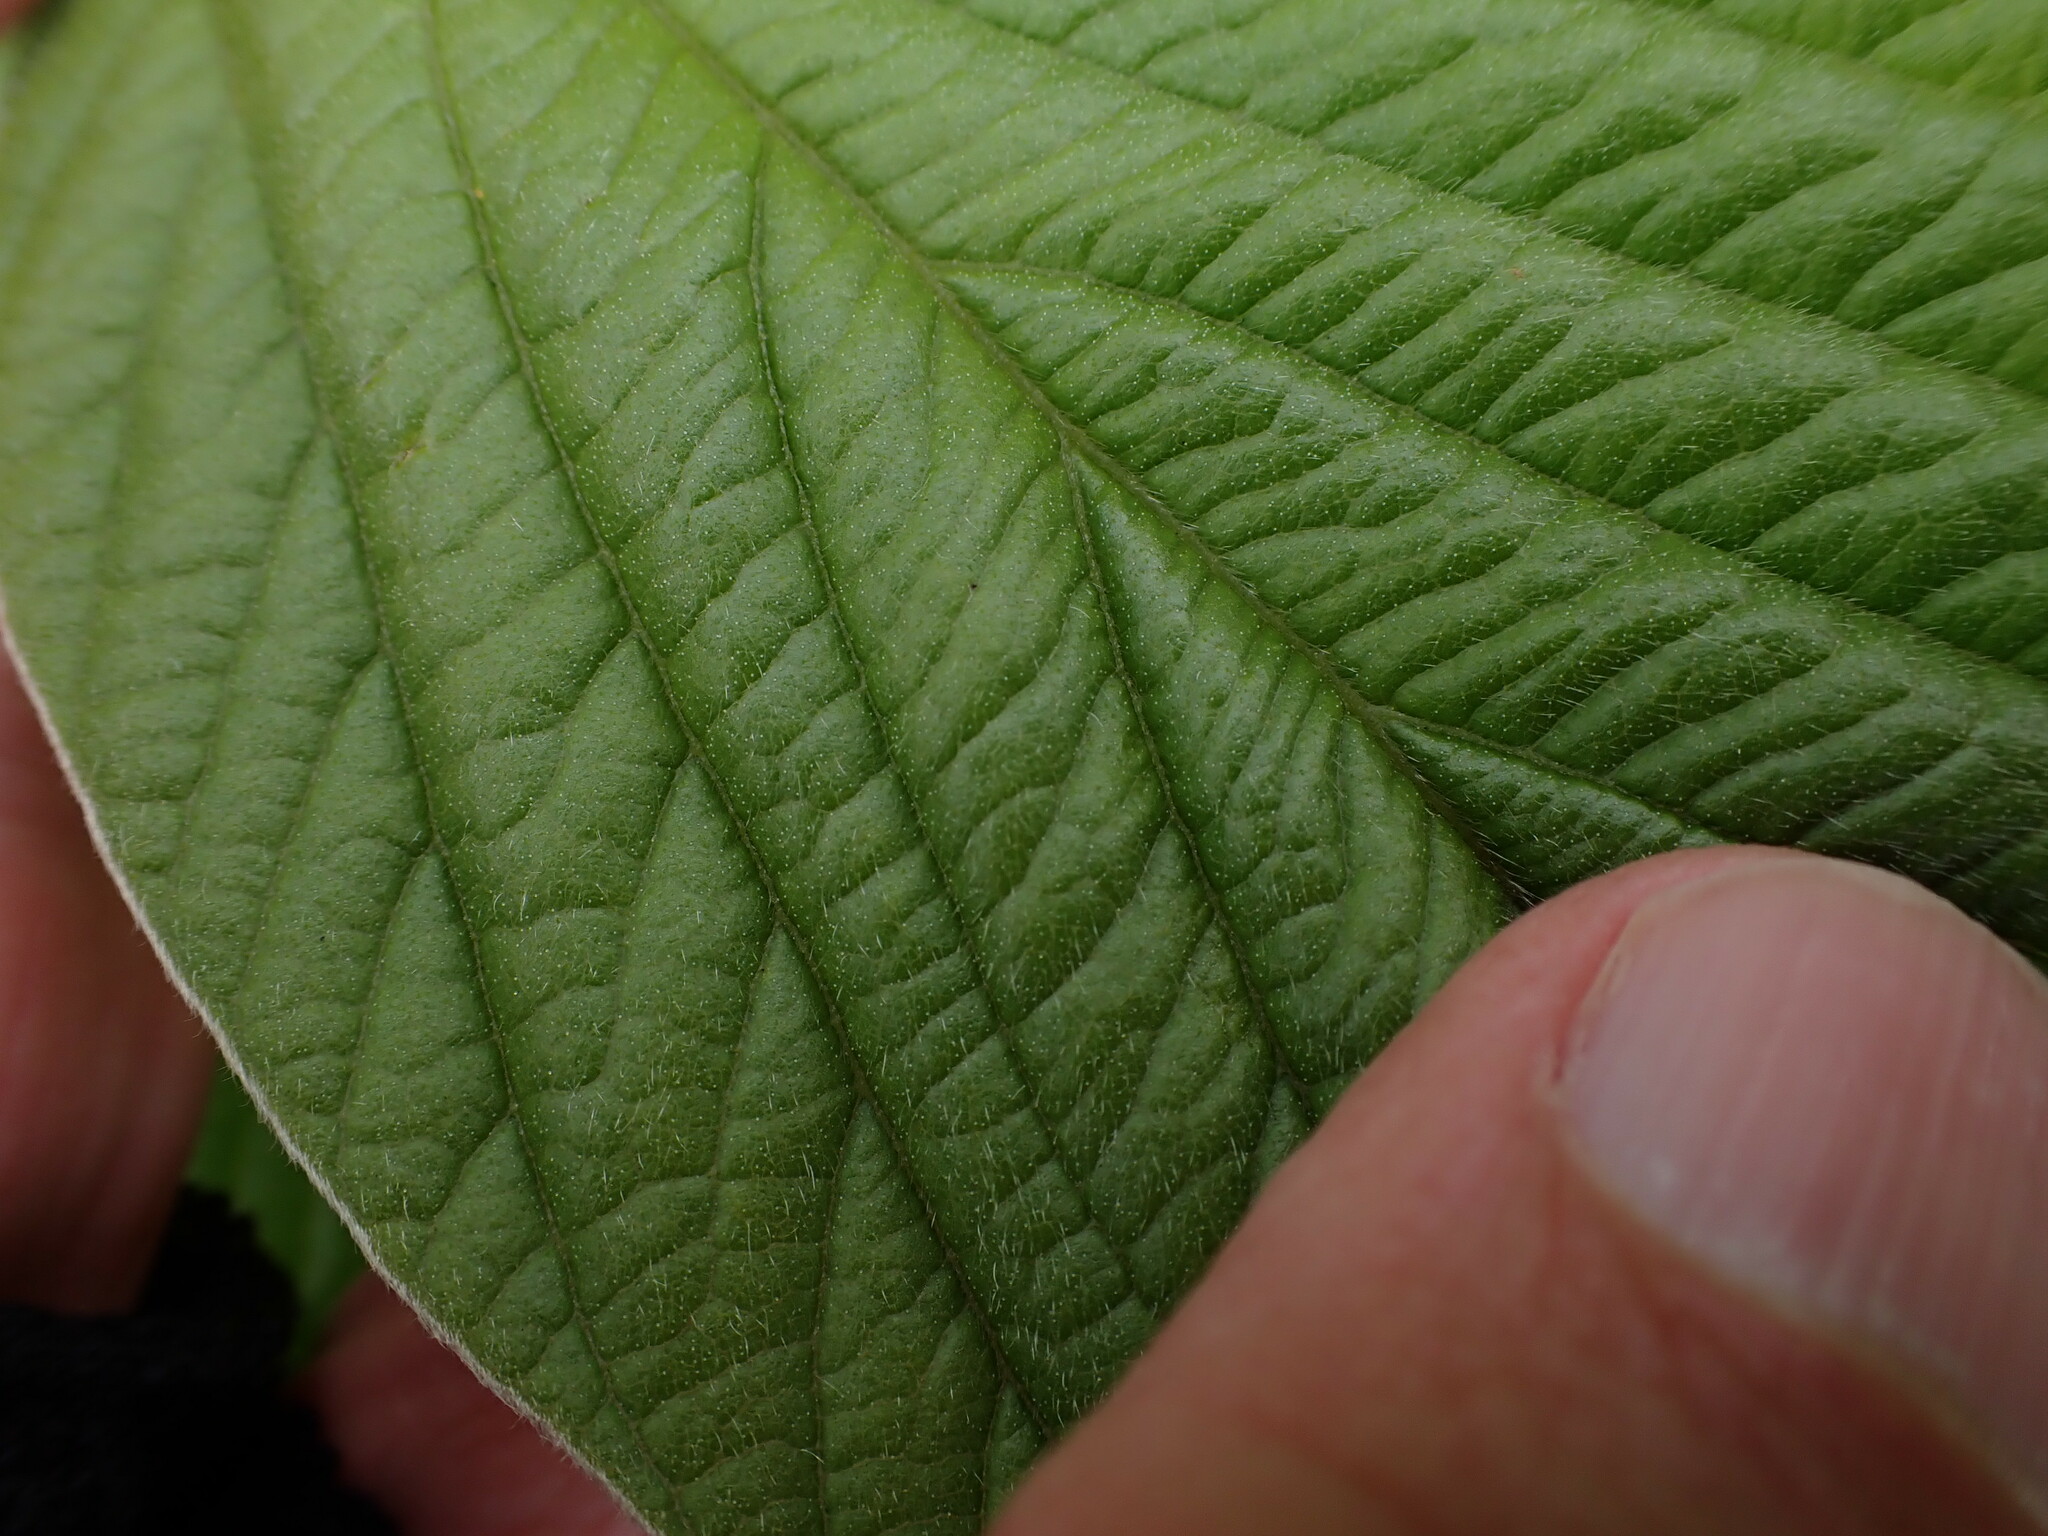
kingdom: Plantae
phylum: Tracheophyta
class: Magnoliopsida
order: Fabales
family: Fabaceae
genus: Eriosema
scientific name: Eriosema distinctum
